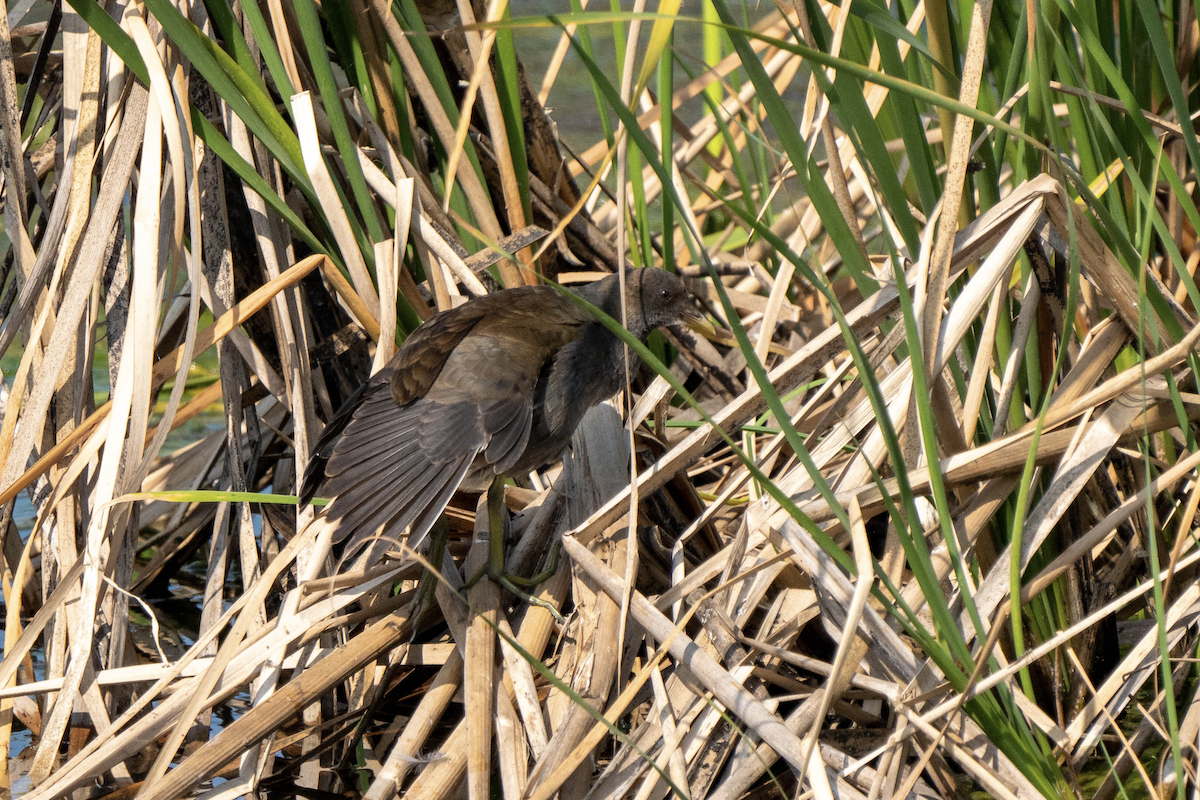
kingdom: Animalia
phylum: Chordata
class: Aves
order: Gruiformes
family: Rallidae
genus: Gallinula
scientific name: Gallinula chloropus
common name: Common moorhen
